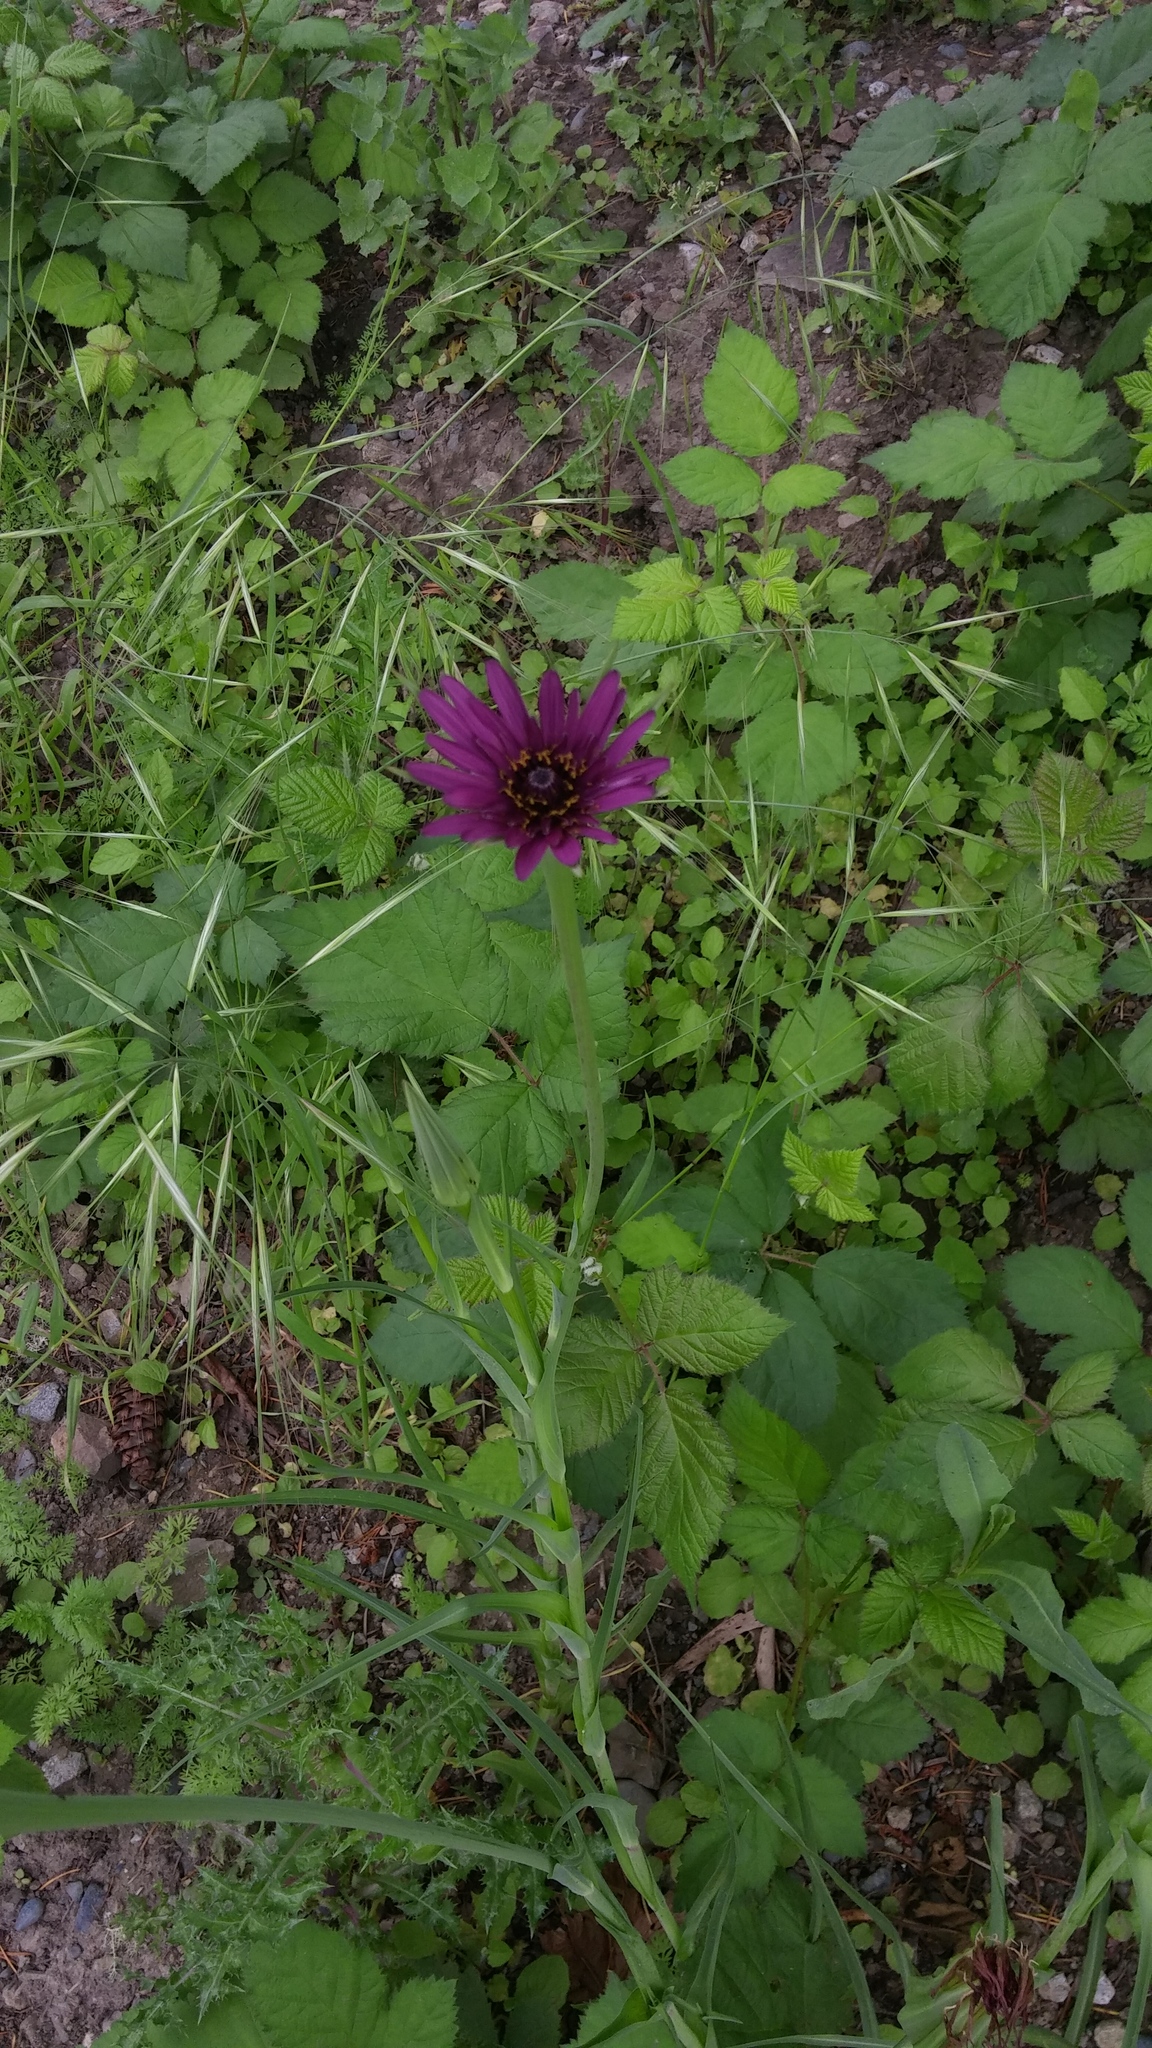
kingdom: Plantae
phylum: Tracheophyta
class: Magnoliopsida
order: Asterales
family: Asteraceae
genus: Tragopogon
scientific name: Tragopogon porrifolius
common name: Salsify
